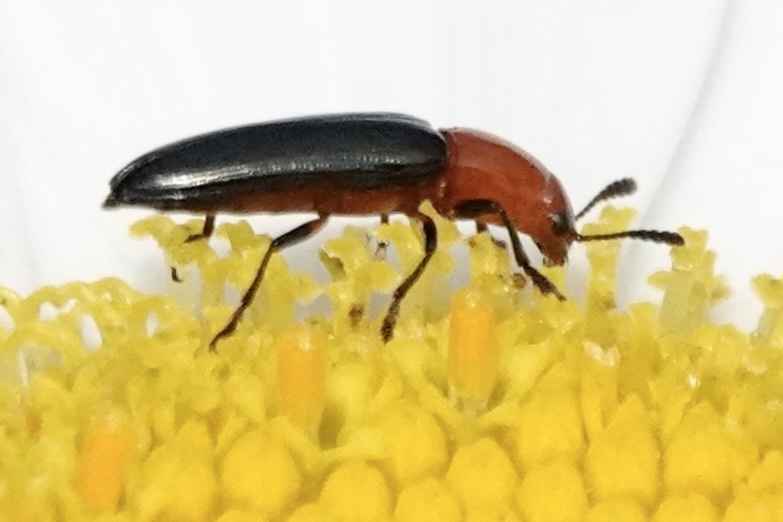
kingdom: Animalia
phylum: Arthropoda
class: Insecta
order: Coleoptera
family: Erotylidae
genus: Languria
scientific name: Languria mozardi
